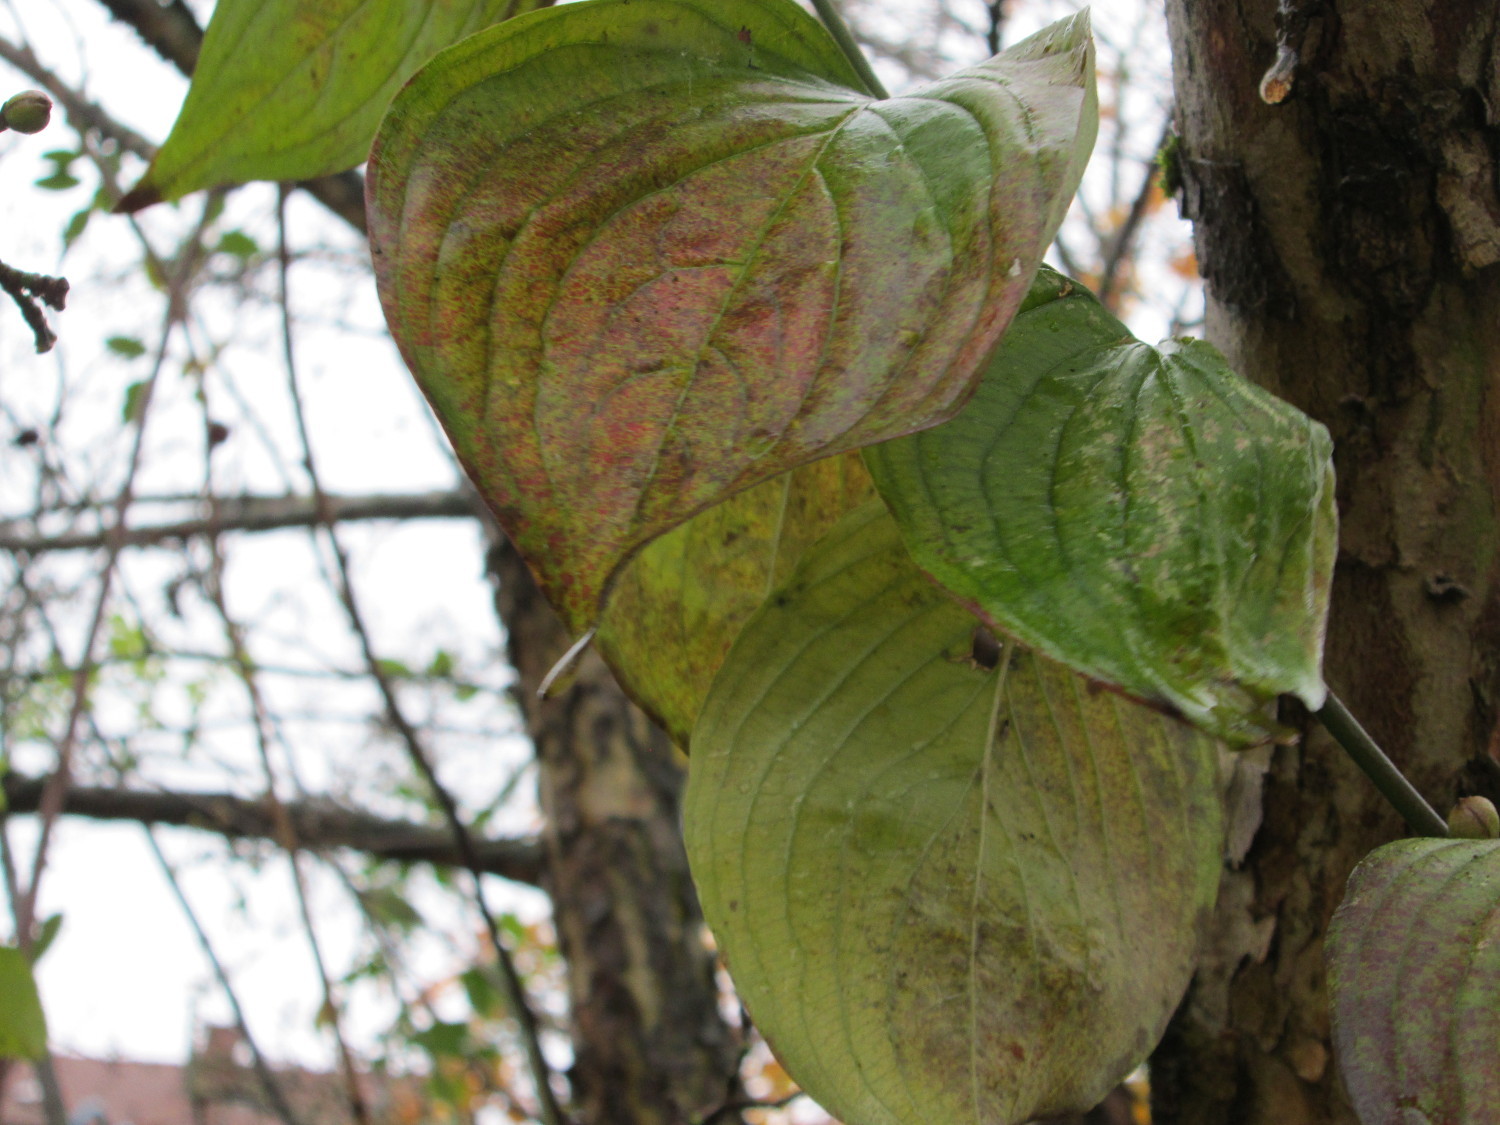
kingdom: Plantae
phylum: Tracheophyta
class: Magnoliopsida
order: Cornales
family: Cornaceae
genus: Cornus
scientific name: Cornus mas
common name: Cornelian-cherry
